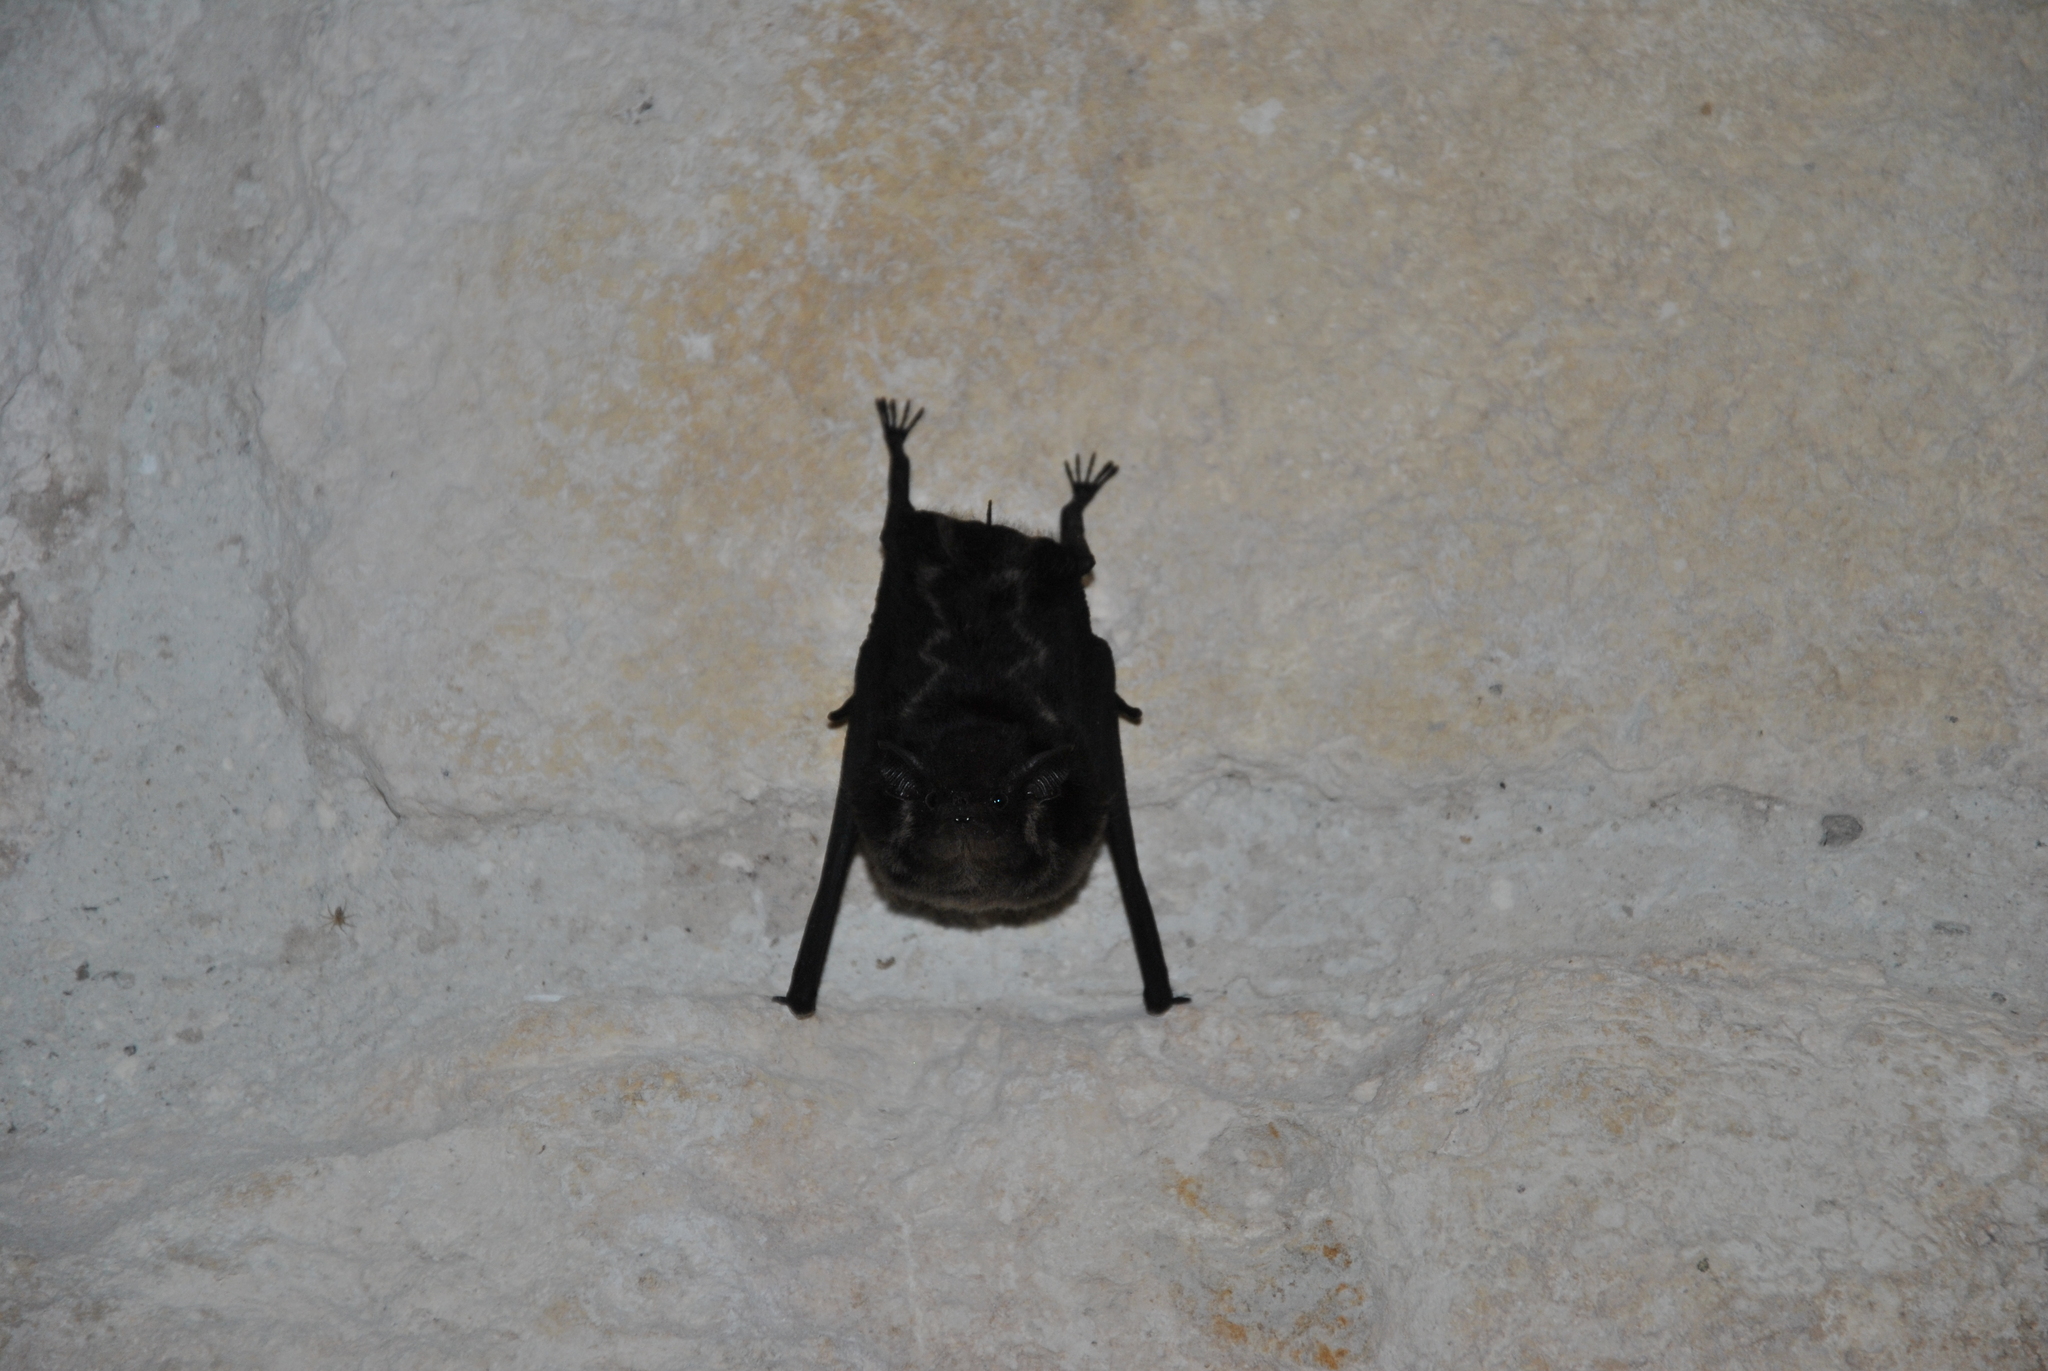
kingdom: Animalia
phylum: Chordata
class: Mammalia
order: Chiroptera
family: Emballonuridae
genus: Saccopteryx
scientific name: Saccopteryx bilineata
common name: Greater sac-winged bat
